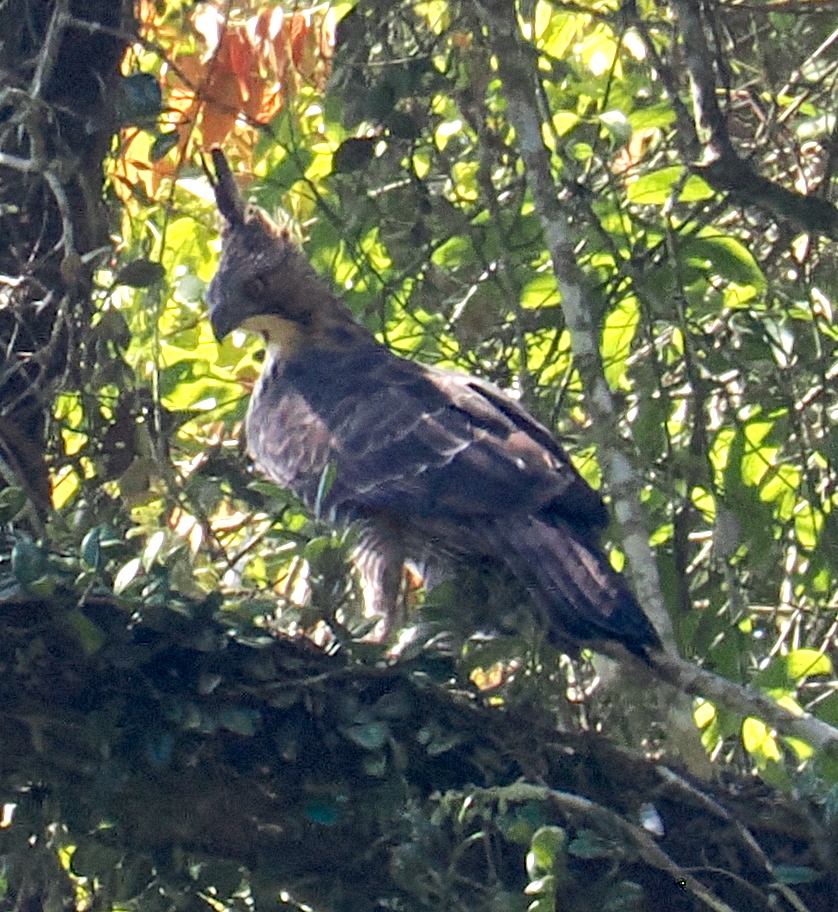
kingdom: Animalia
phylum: Chordata
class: Aves
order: Accipitriformes
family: Accipitridae
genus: Nisaetus
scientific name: Nisaetus bartelsi
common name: Javan hawk-eagle
